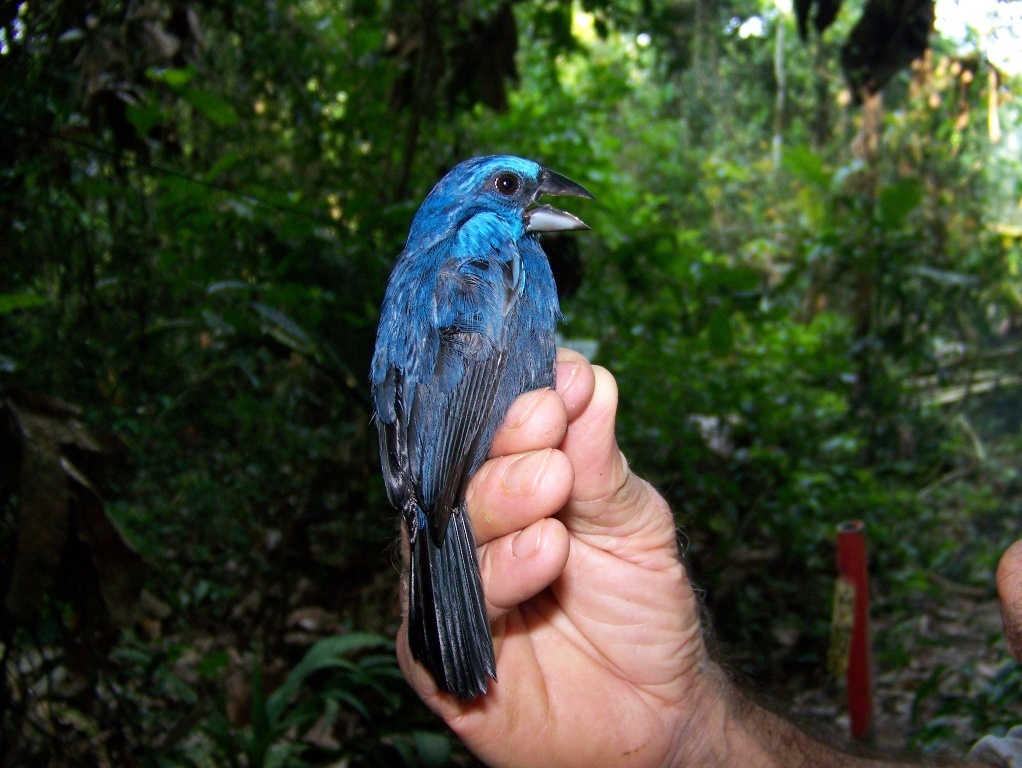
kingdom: Animalia
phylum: Chordata
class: Aves
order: Passeriformes
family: Cardinalidae
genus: Cyanoloxia
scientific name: Cyanoloxia rothschildii
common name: Amazonian grosbeak
